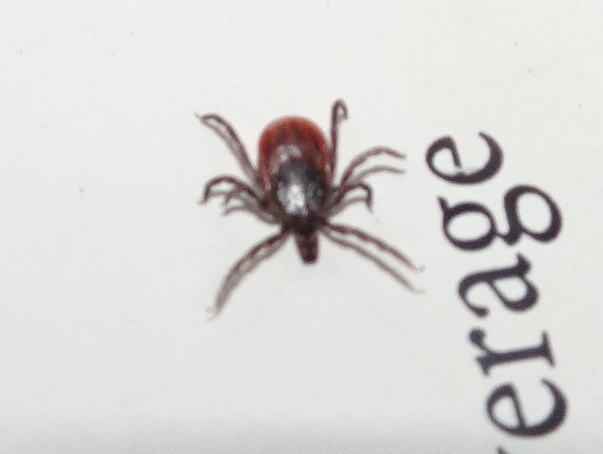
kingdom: Animalia
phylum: Arthropoda
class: Arachnida
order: Ixodida
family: Ixodidae
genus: Ixodes
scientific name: Ixodes scapularis
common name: Black legged tick
